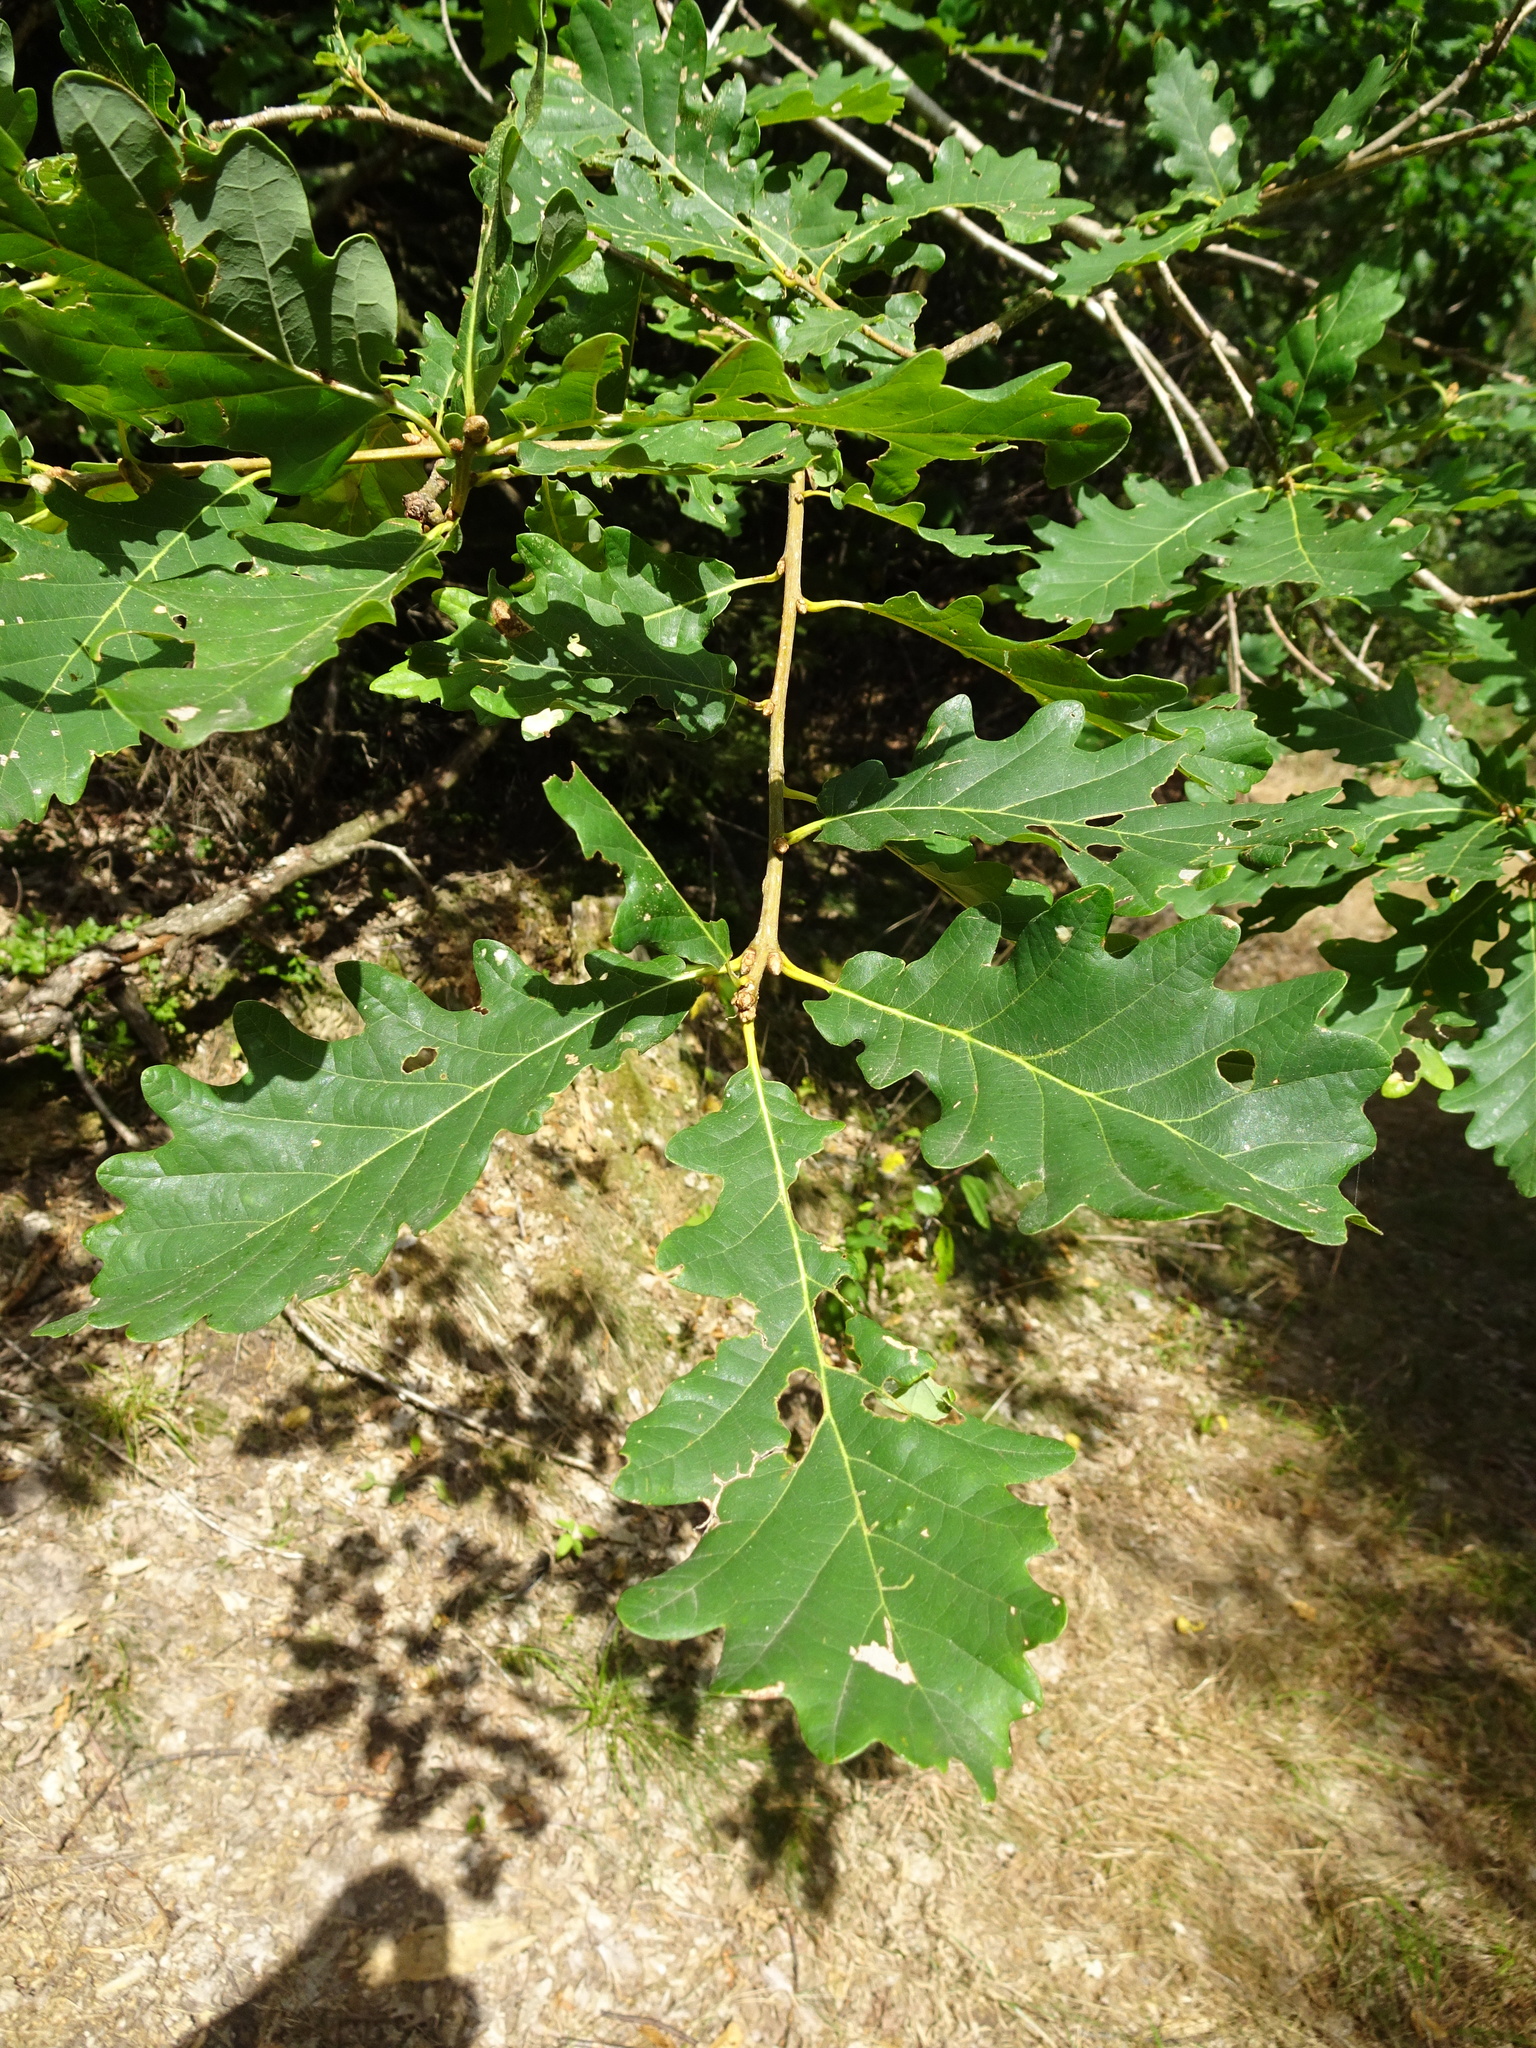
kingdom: Plantae
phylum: Tracheophyta
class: Magnoliopsida
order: Fagales
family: Fagaceae
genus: Quercus
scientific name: Quercus petraea
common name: Sessile oak
